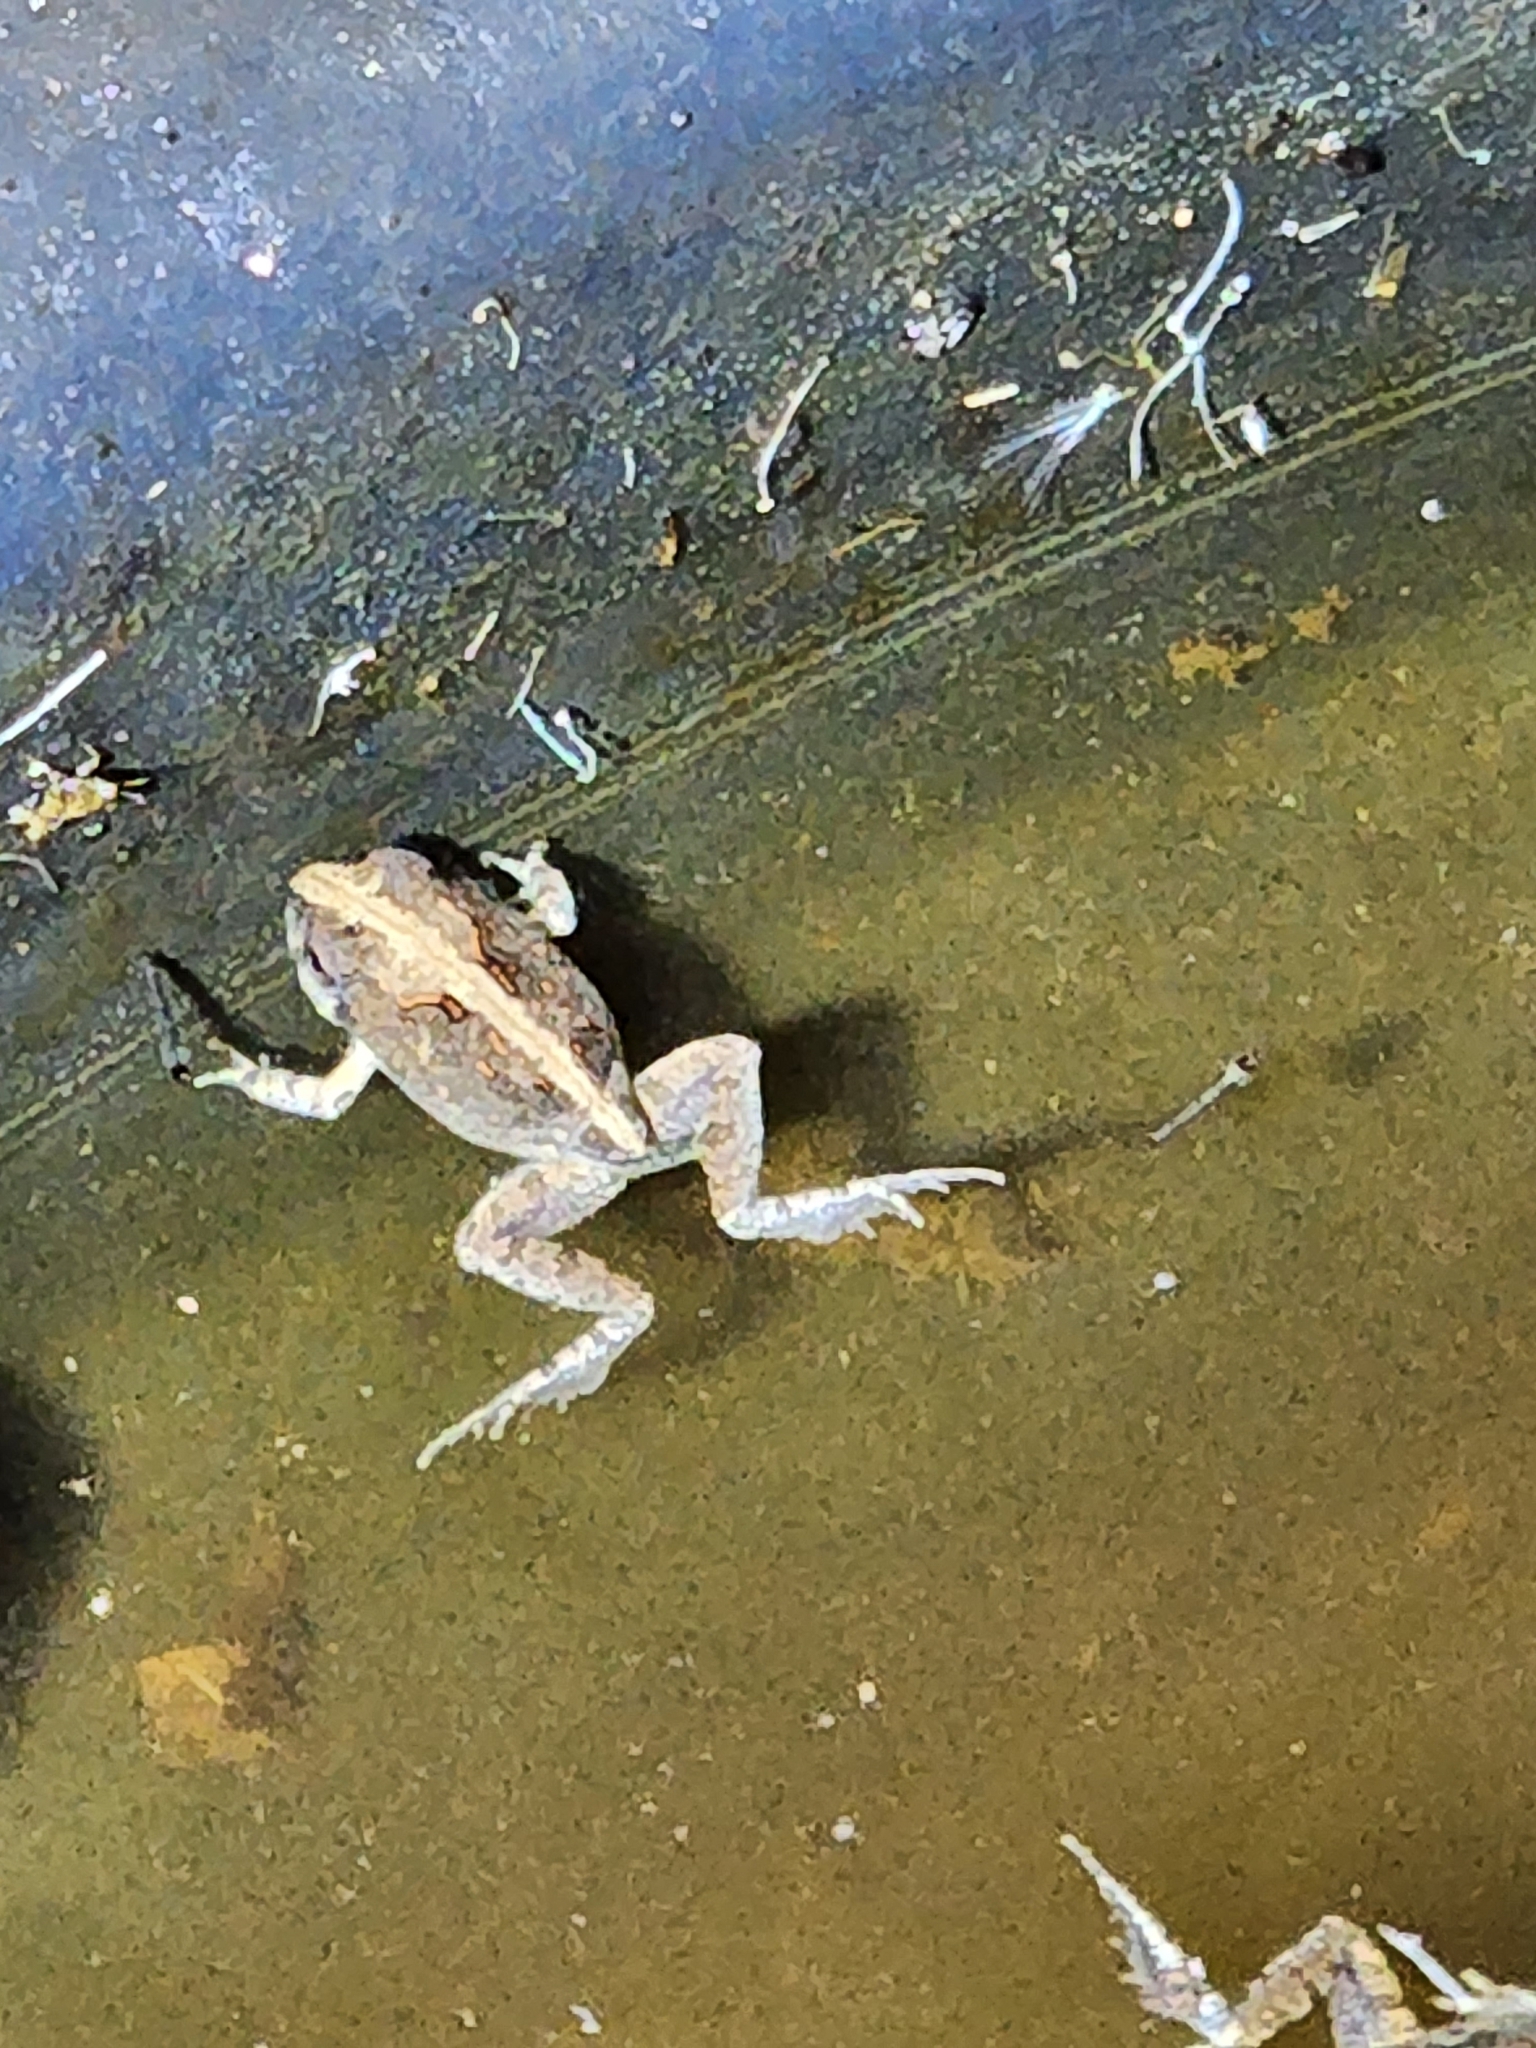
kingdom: Animalia
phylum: Chordata
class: Amphibia
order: Anura
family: Limnodynastidae
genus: Platyplectrum
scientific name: Platyplectrum ornatum
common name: Ornate burrowing frog
